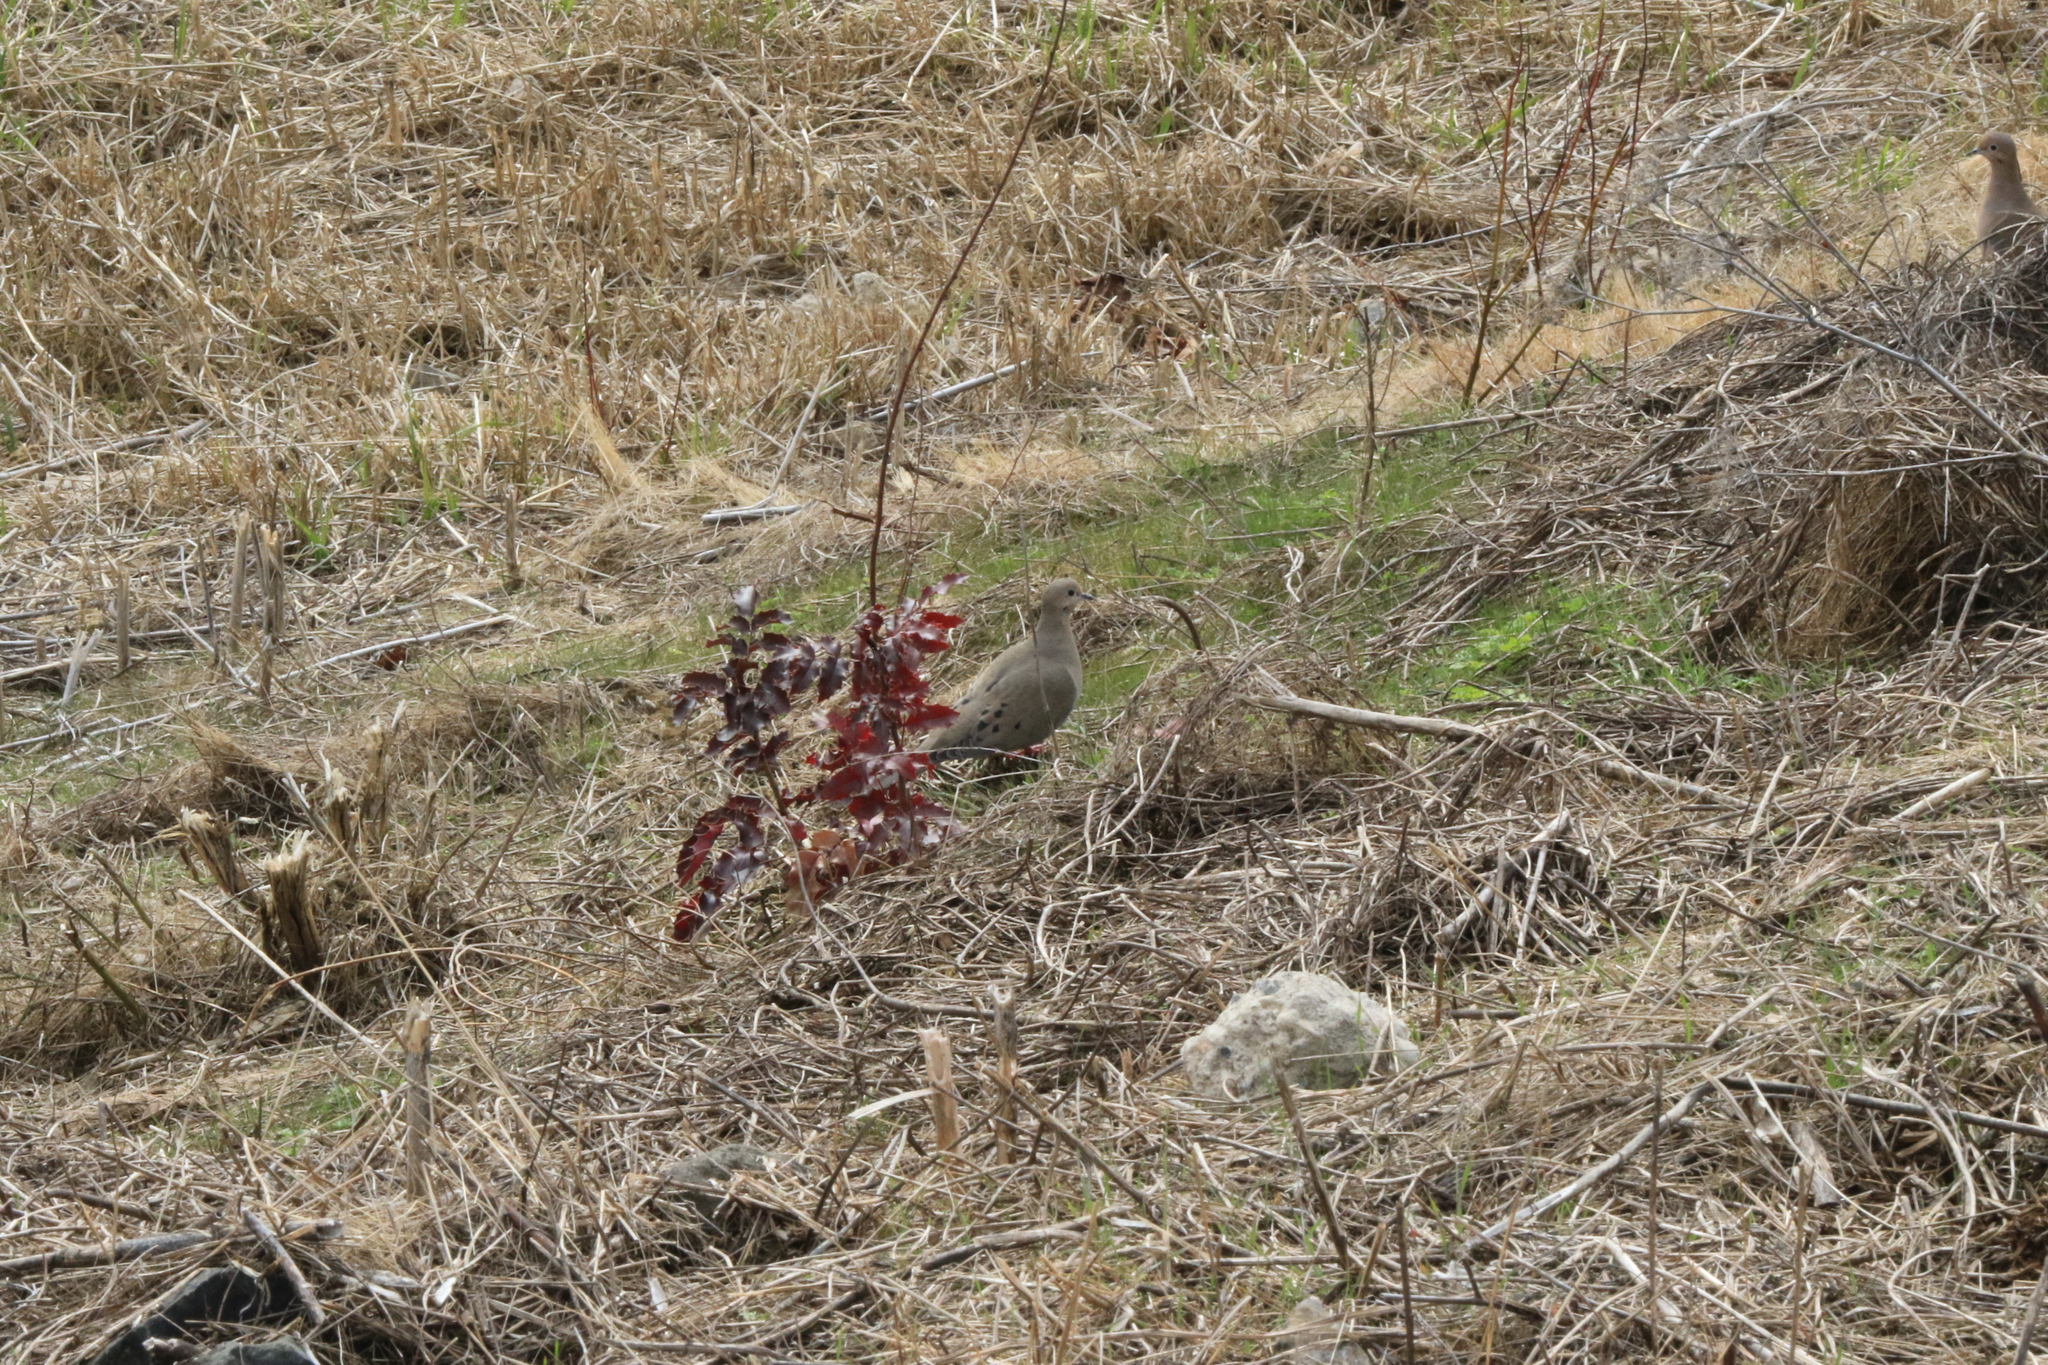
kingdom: Animalia
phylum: Chordata
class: Aves
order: Columbiformes
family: Columbidae
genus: Zenaida
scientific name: Zenaida macroura
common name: Mourning dove
